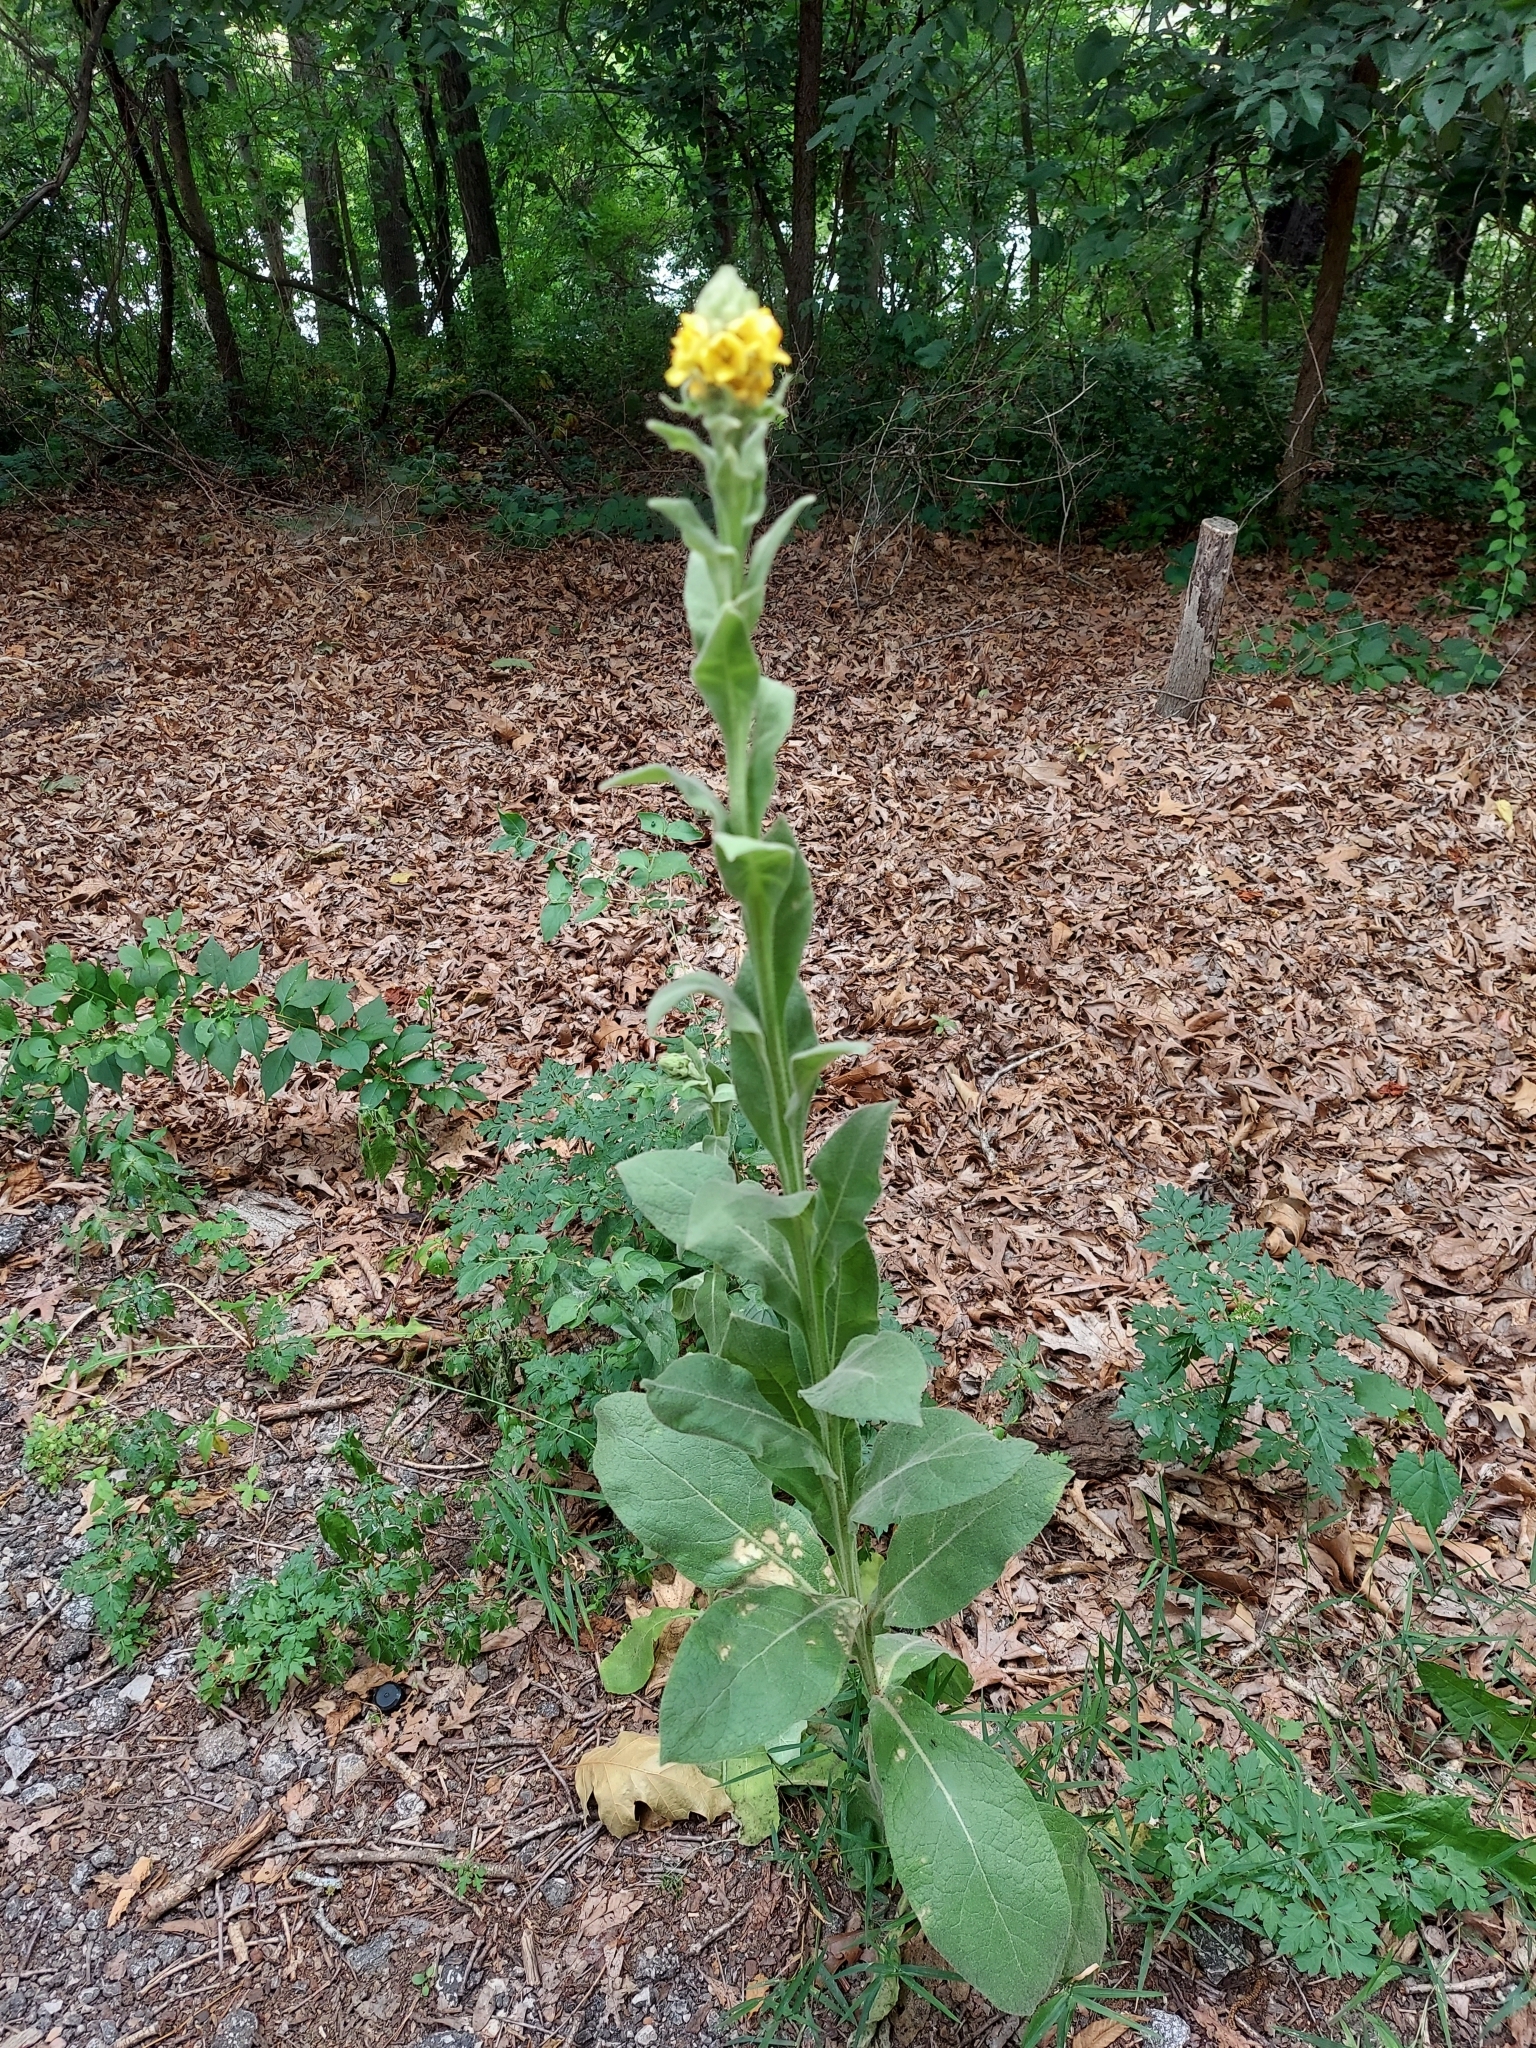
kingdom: Plantae
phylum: Tracheophyta
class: Magnoliopsida
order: Lamiales
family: Scrophulariaceae
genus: Verbascum
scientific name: Verbascum thapsus
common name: Common mullein
